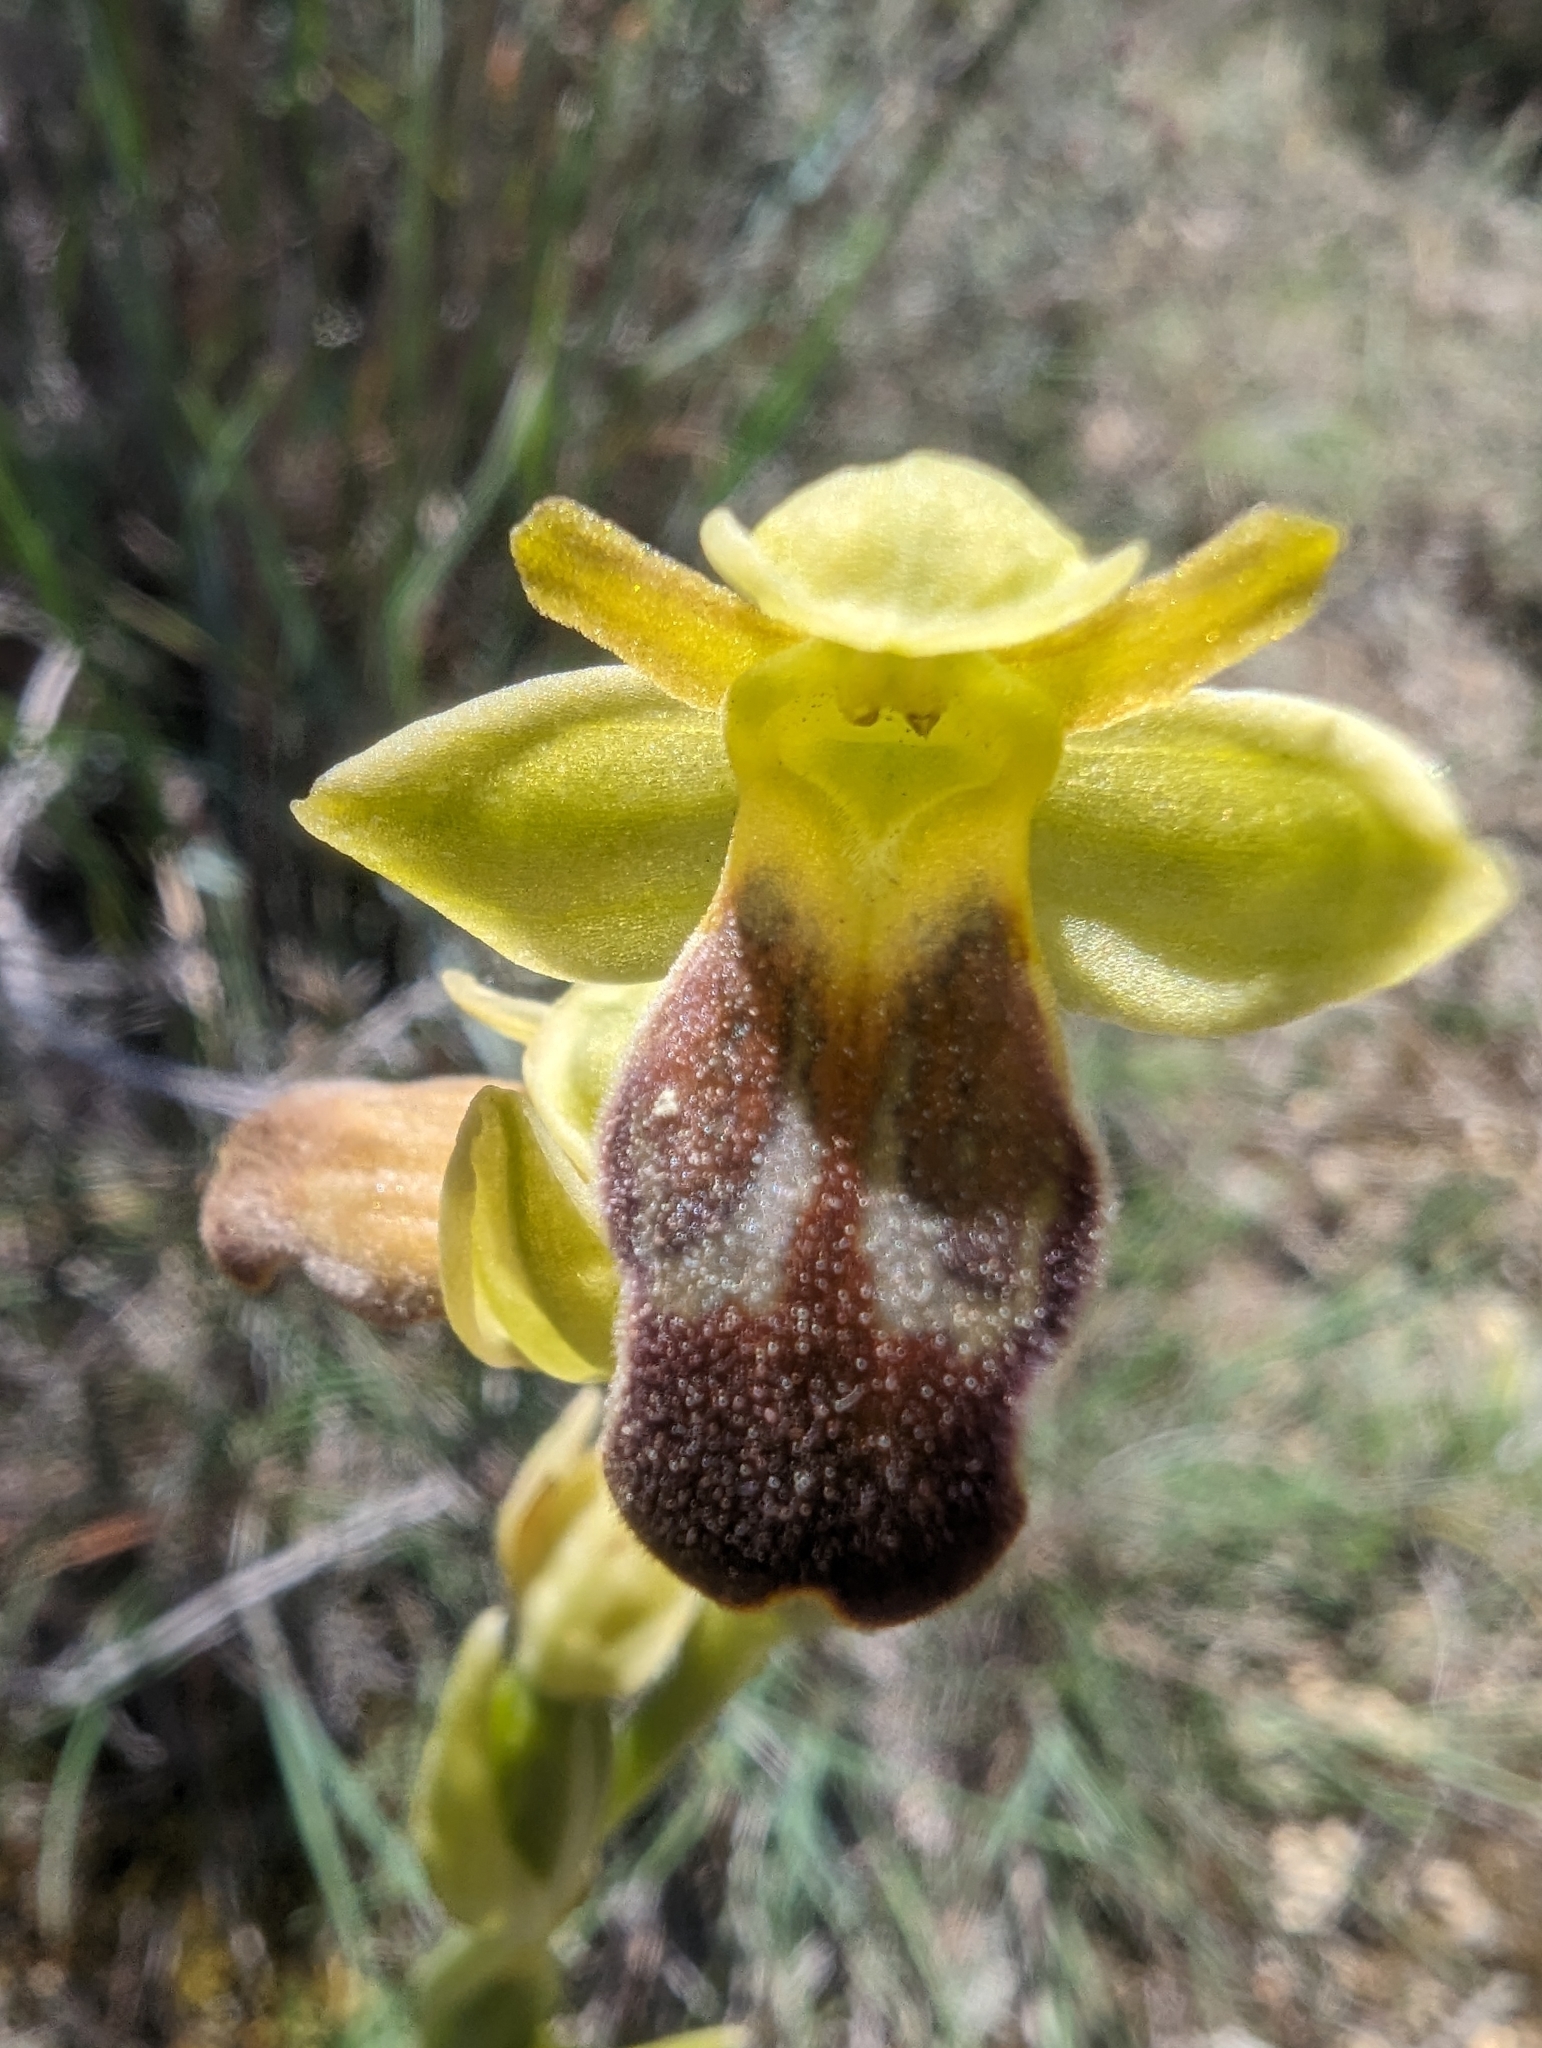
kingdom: Plantae
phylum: Tracheophyta
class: Liliopsida
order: Asparagales
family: Orchidaceae
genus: Ophrys
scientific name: Ophrys fusca
